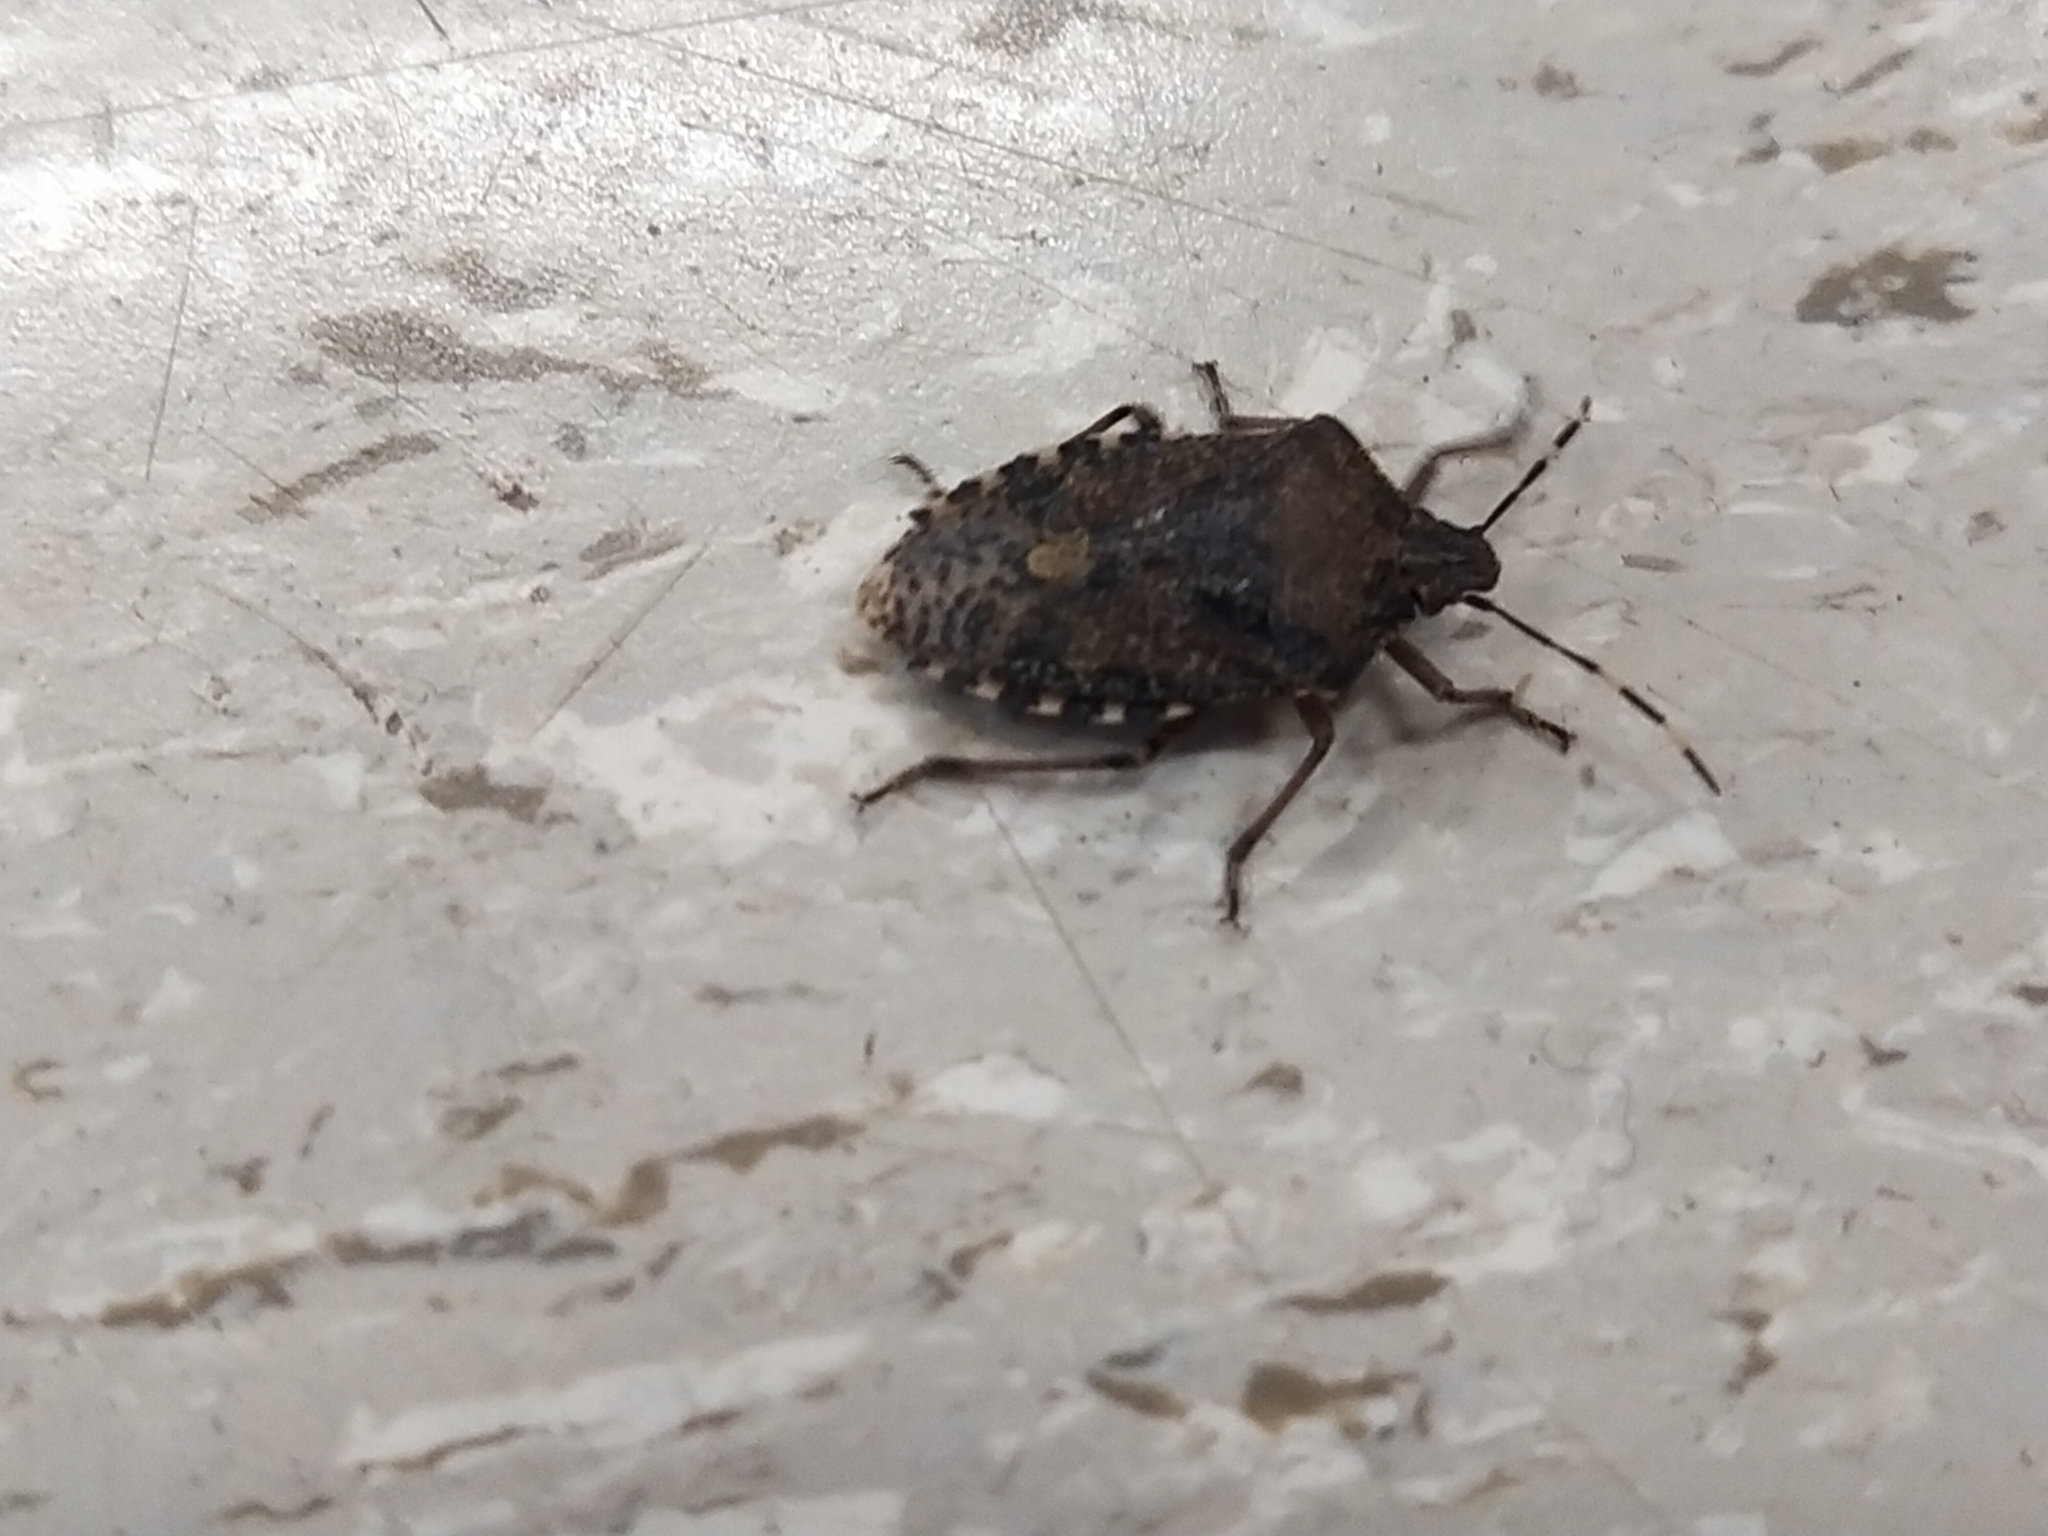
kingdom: Animalia
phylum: Arthropoda
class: Insecta
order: Hemiptera
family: Pentatomidae
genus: Rhaphigaster
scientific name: Rhaphigaster nebulosa
